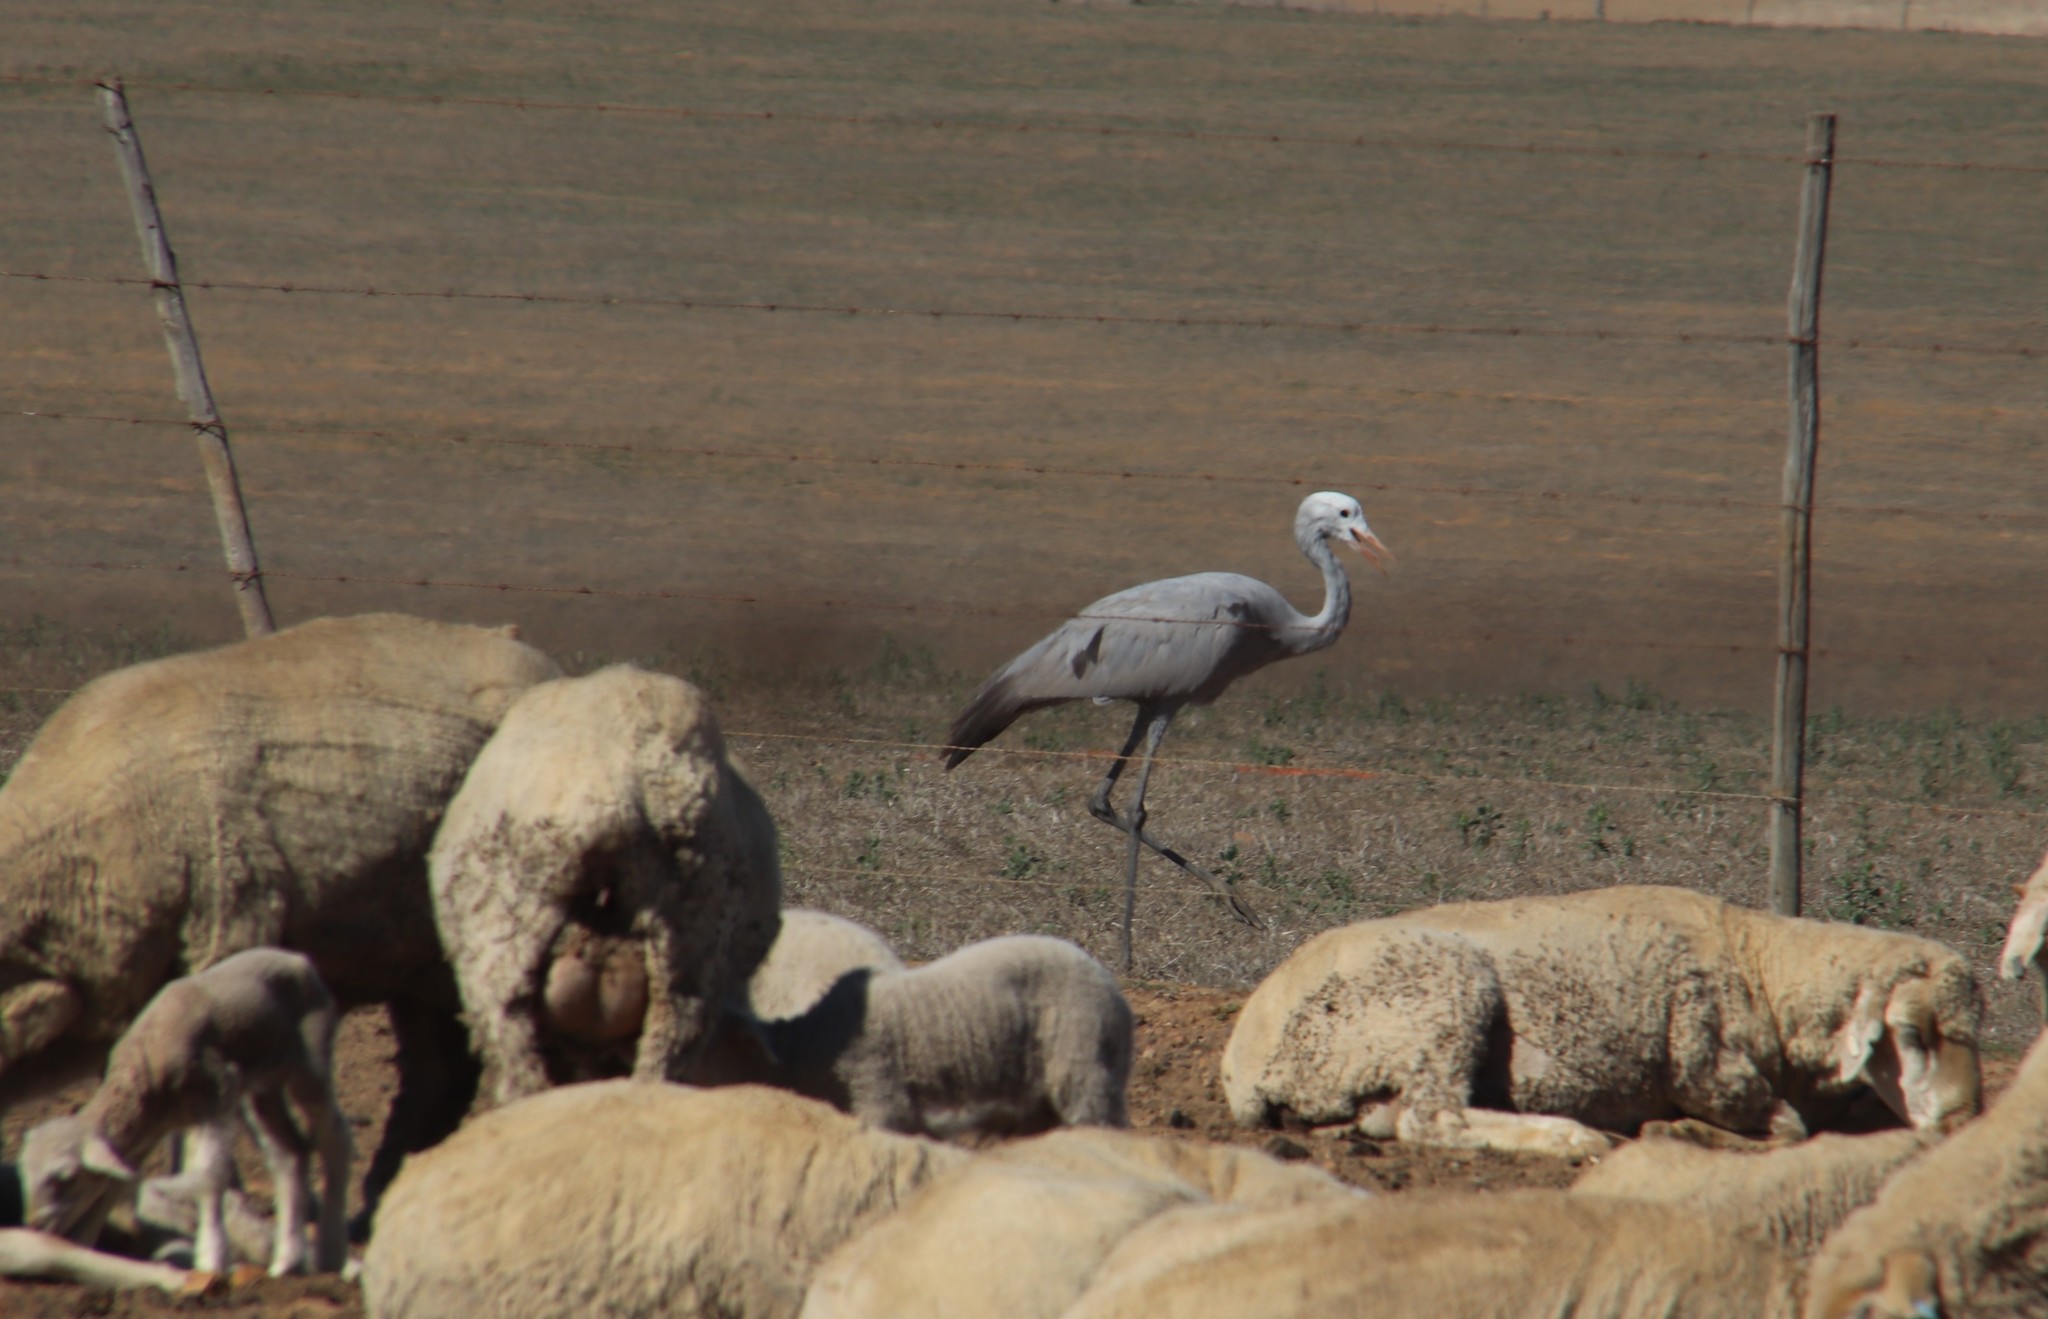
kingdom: Animalia
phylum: Chordata
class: Aves
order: Gruiformes
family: Gruidae
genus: Anthropoides
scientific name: Anthropoides paradiseus
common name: Blue crane
